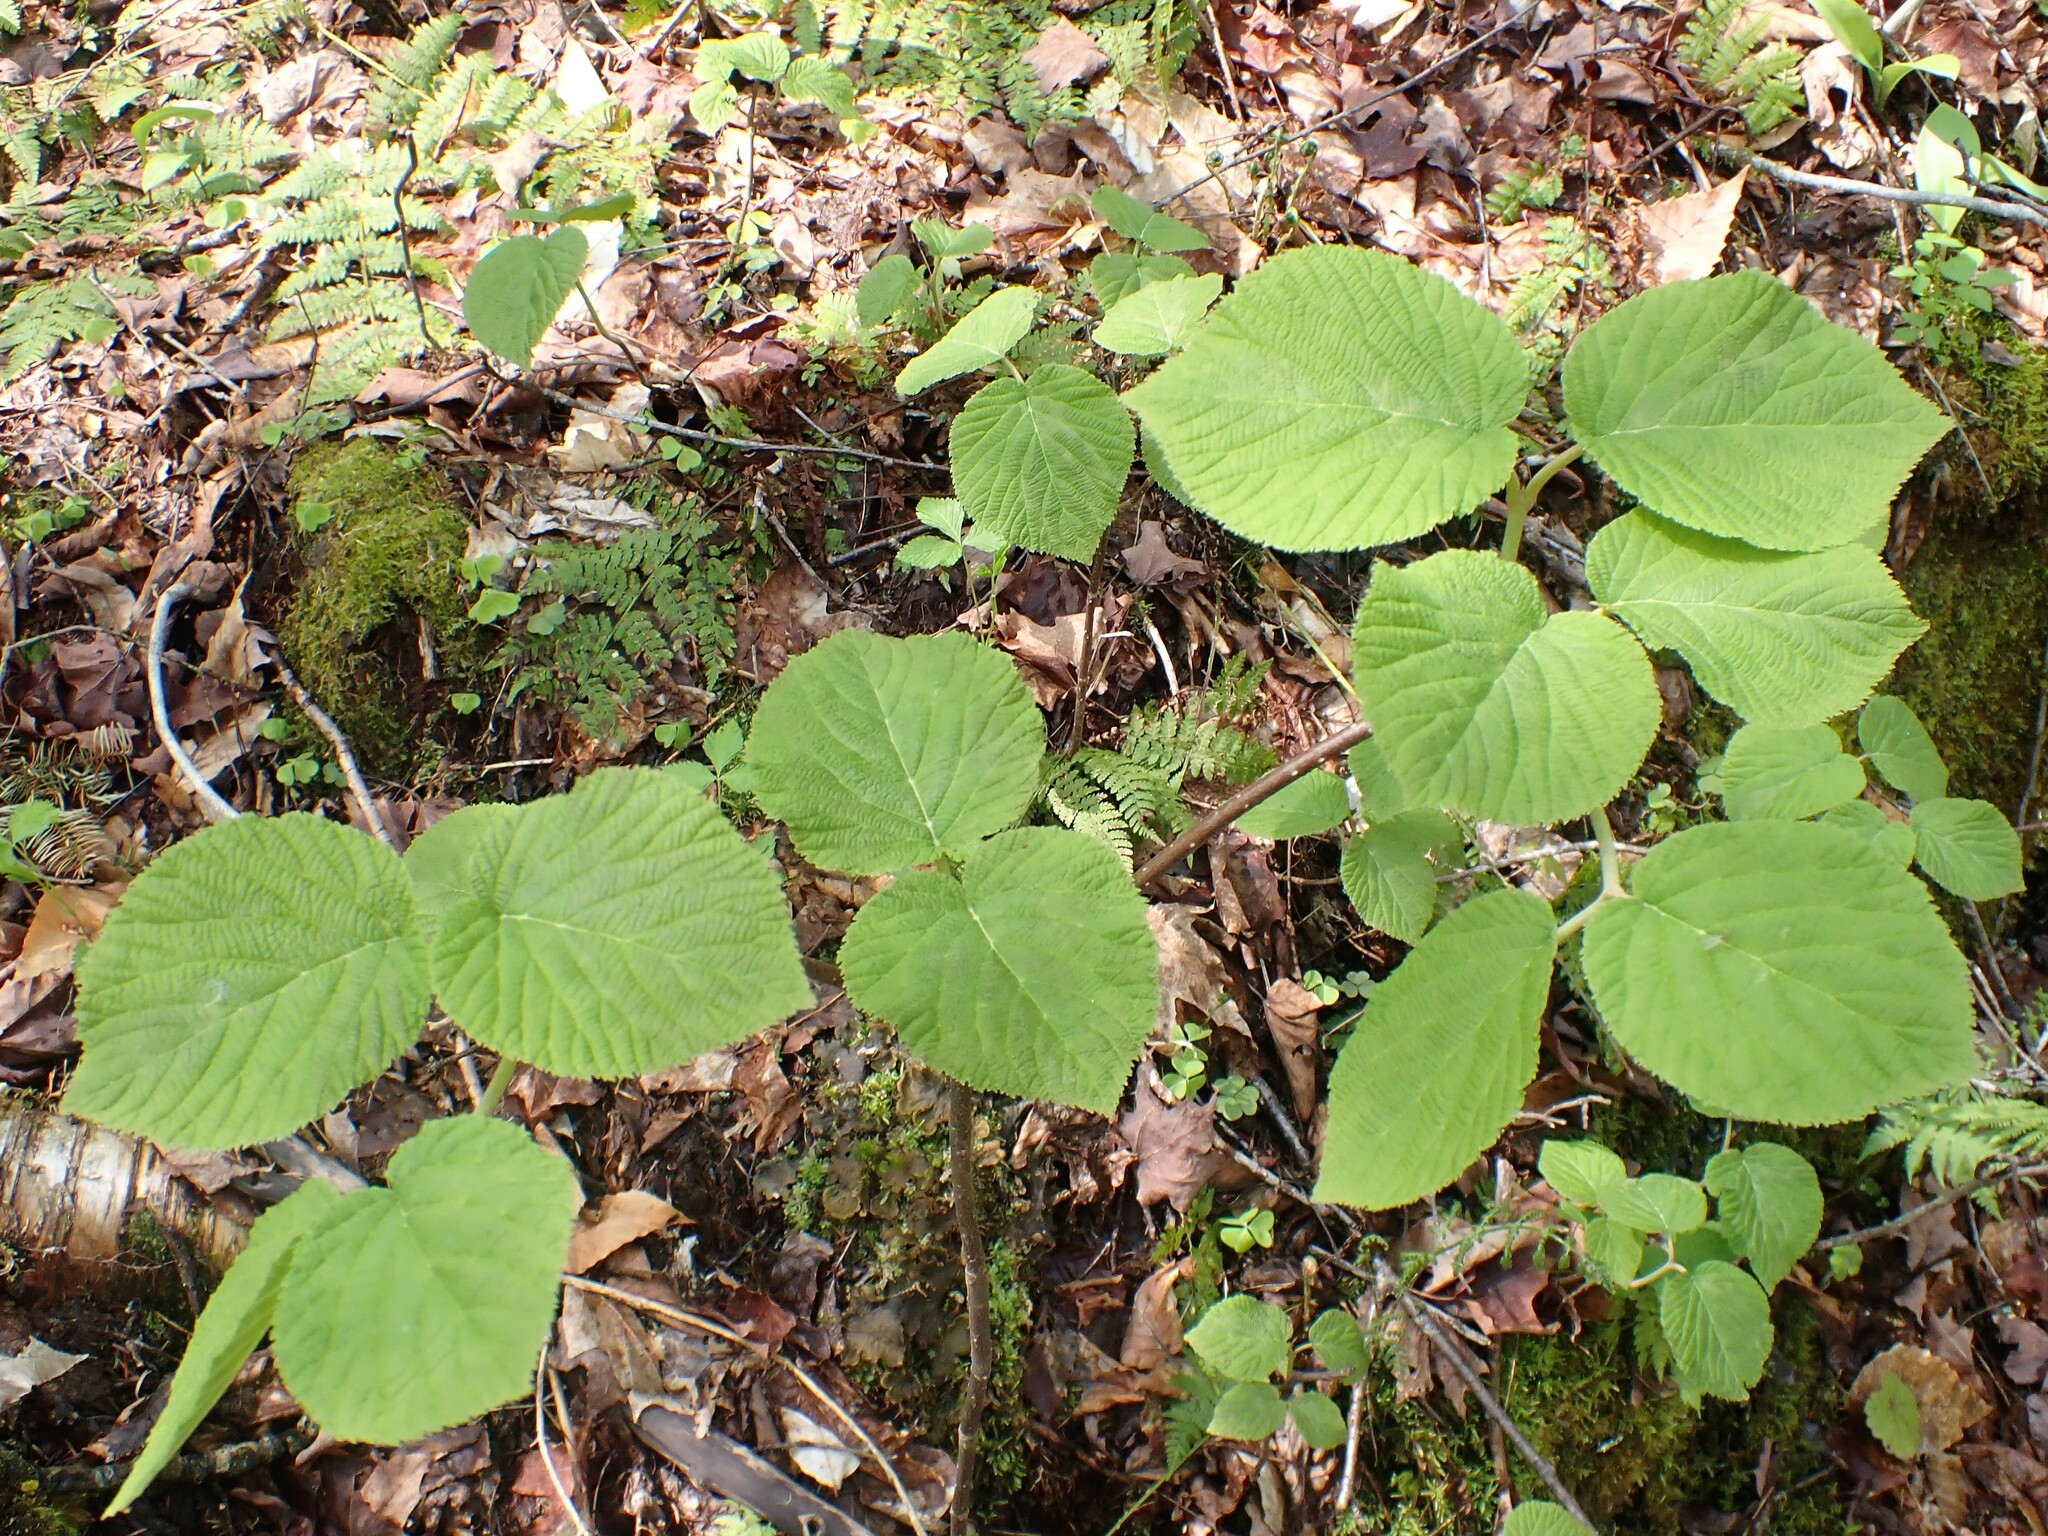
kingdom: Plantae
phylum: Tracheophyta
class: Magnoliopsida
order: Dipsacales
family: Viburnaceae
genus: Viburnum
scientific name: Viburnum lantanoides
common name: Hobblebush
